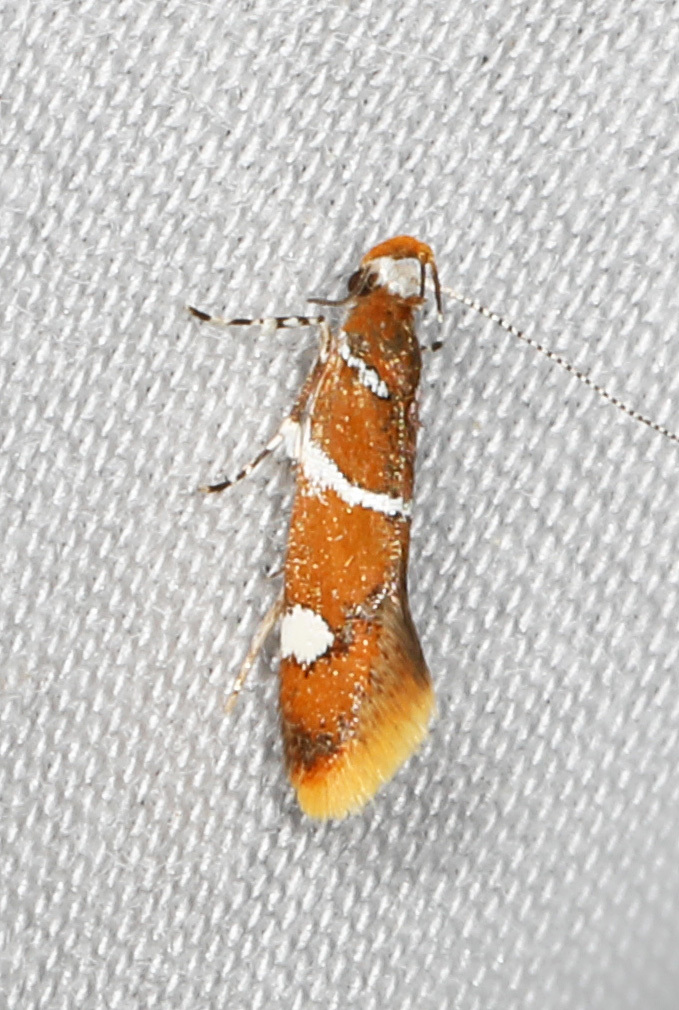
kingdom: Animalia
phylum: Arthropoda
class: Insecta
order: Lepidoptera
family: Oecophoridae
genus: Promalactis
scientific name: Promalactis suzukiella
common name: Moth
